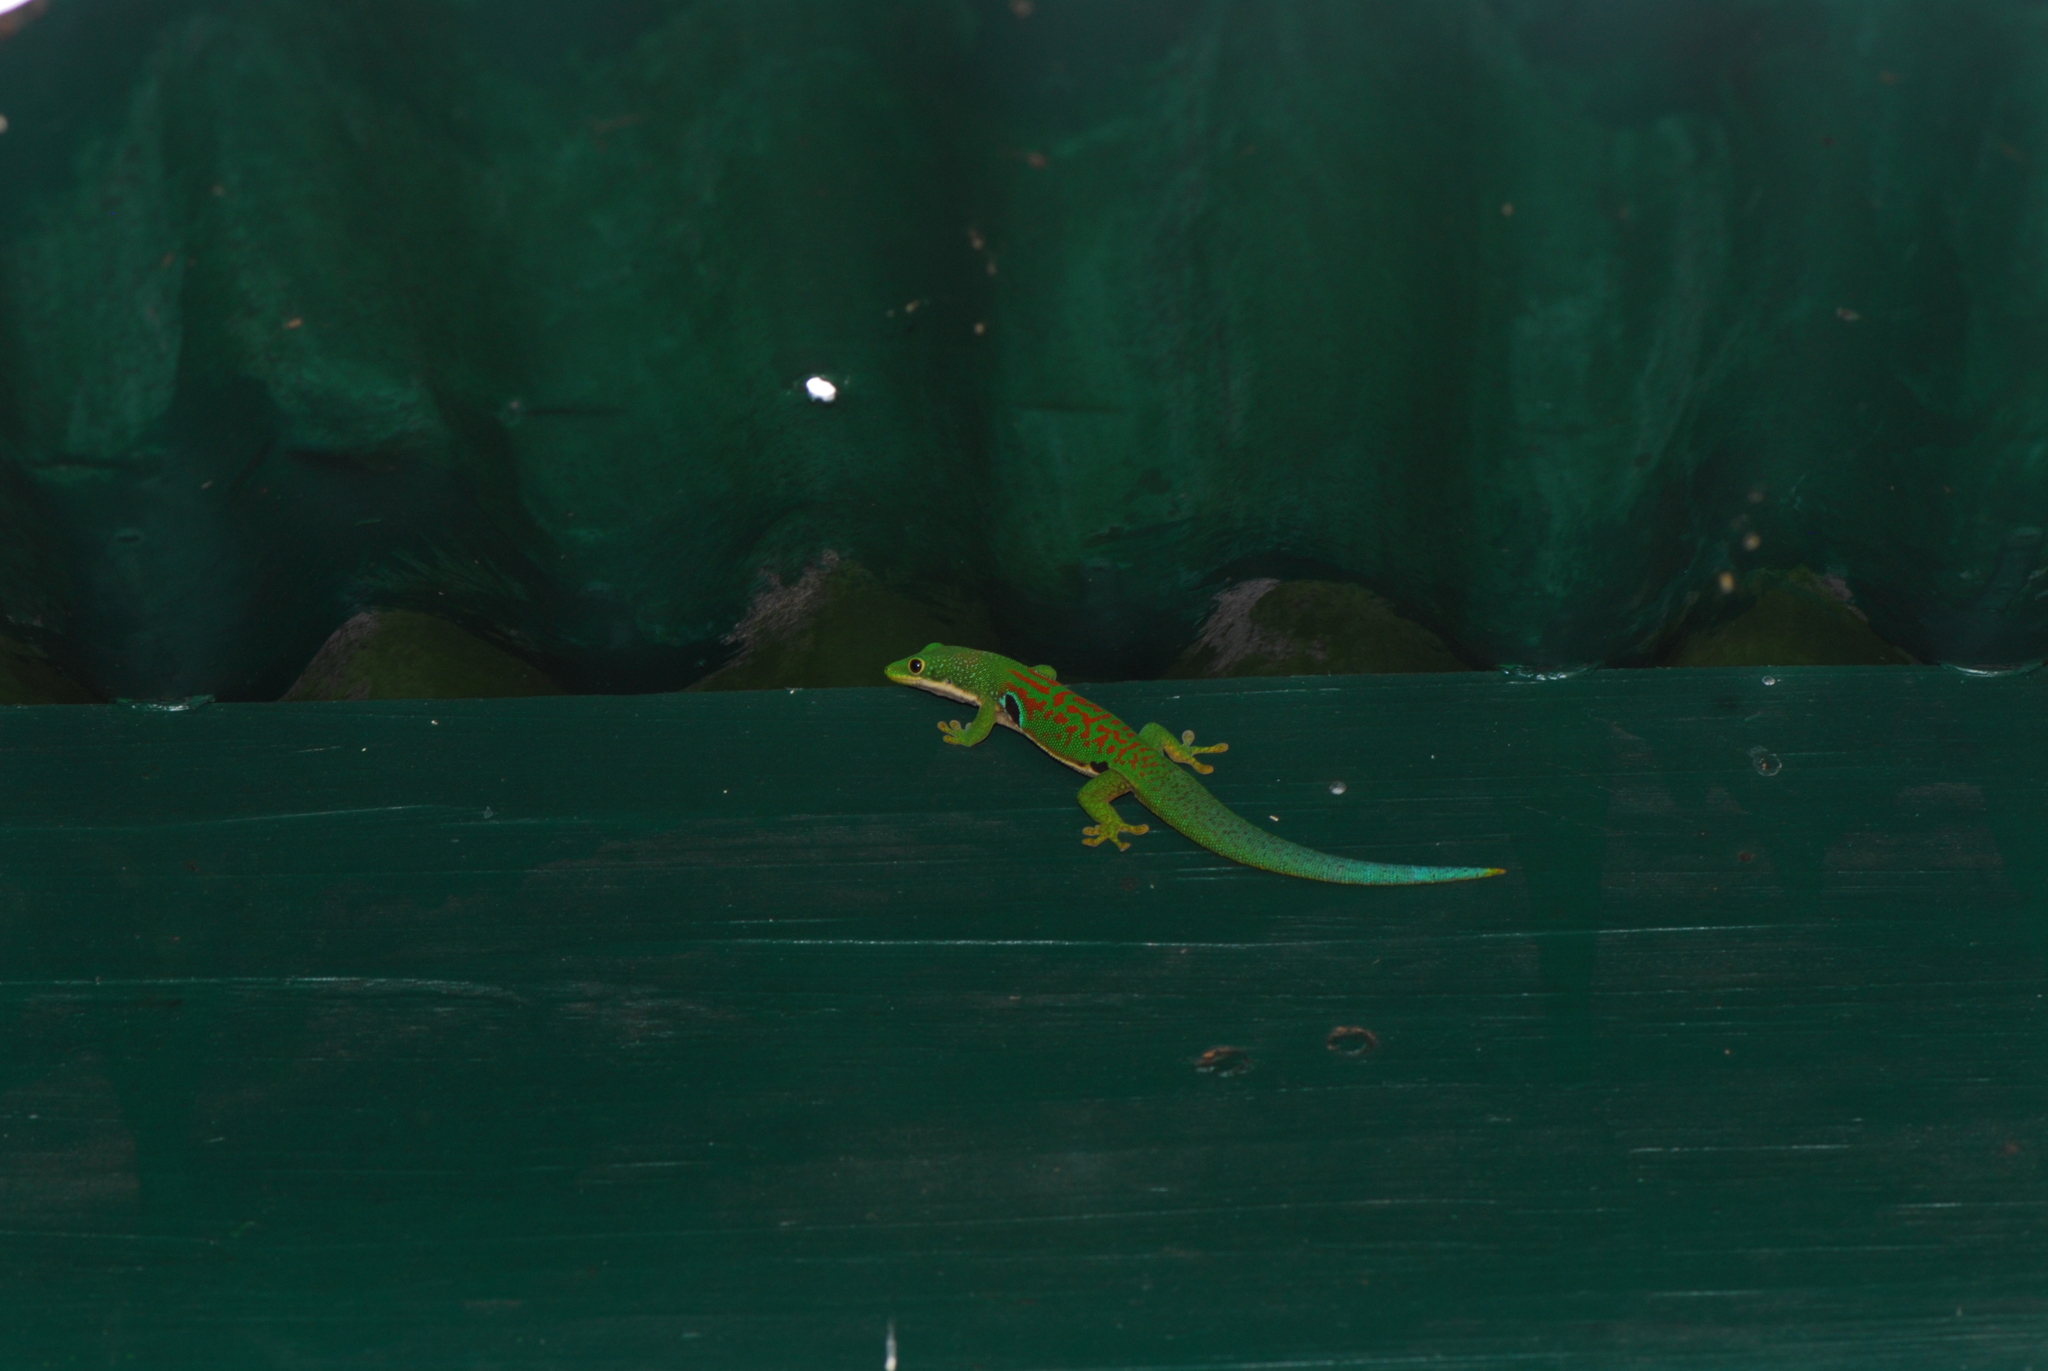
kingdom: Animalia
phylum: Chordata
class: Squamata
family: Gekkonidae
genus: Phelsuma
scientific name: Phelsuma quadriocellata
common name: Peacock day gecko
